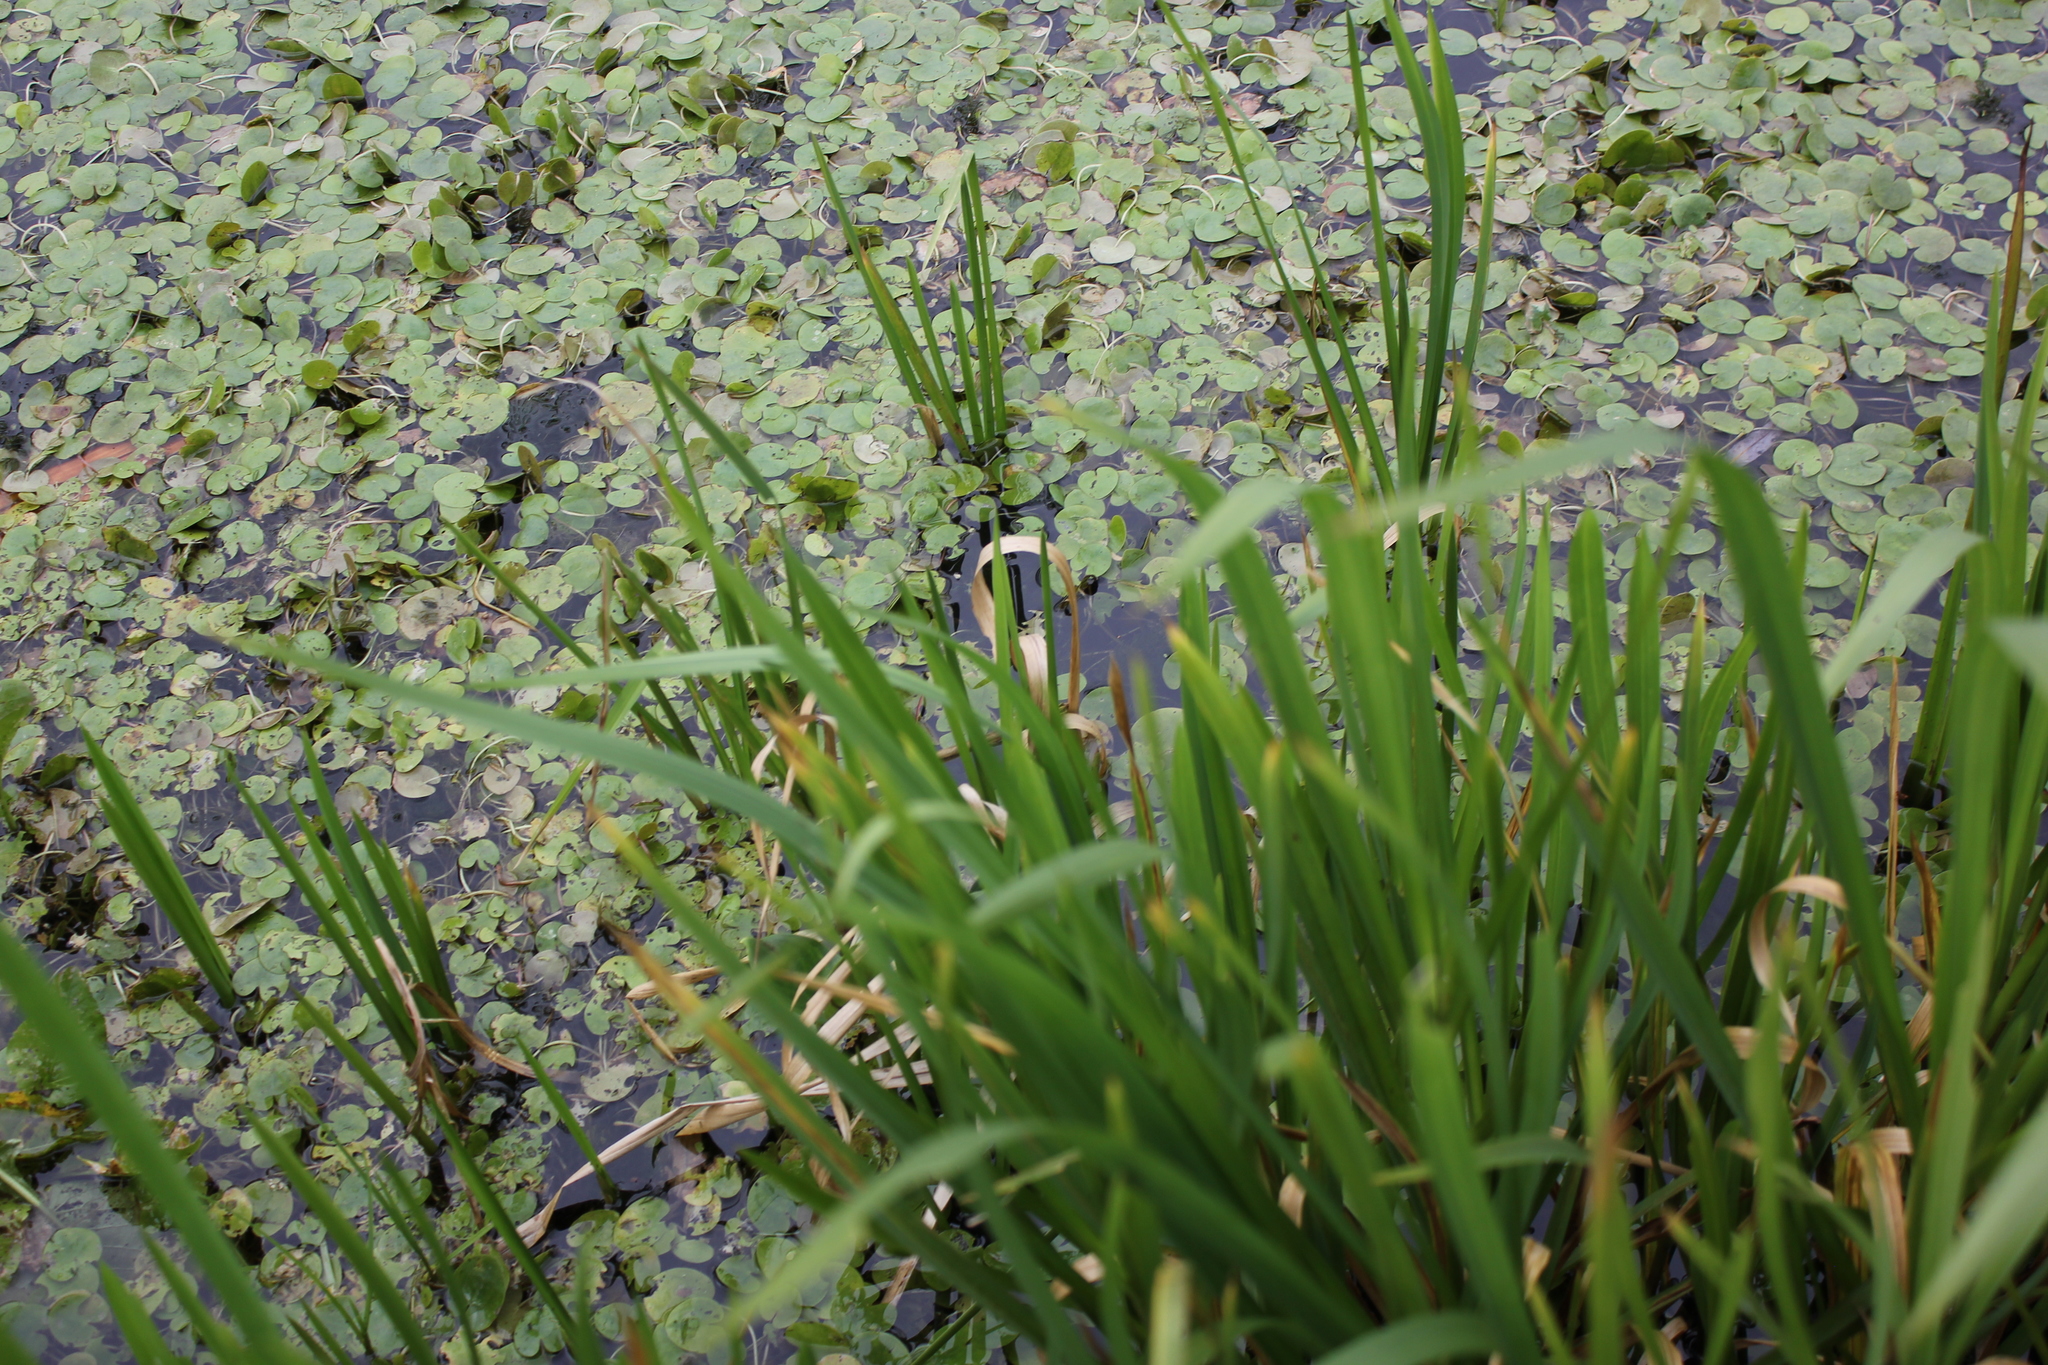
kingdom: Plantae
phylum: Tracheophyta
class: Liliopsida
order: Alismatales
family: Hydrocharitaceae
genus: Hydrocharis
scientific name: Hydrocharis morsus-ranae
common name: Frogbit
